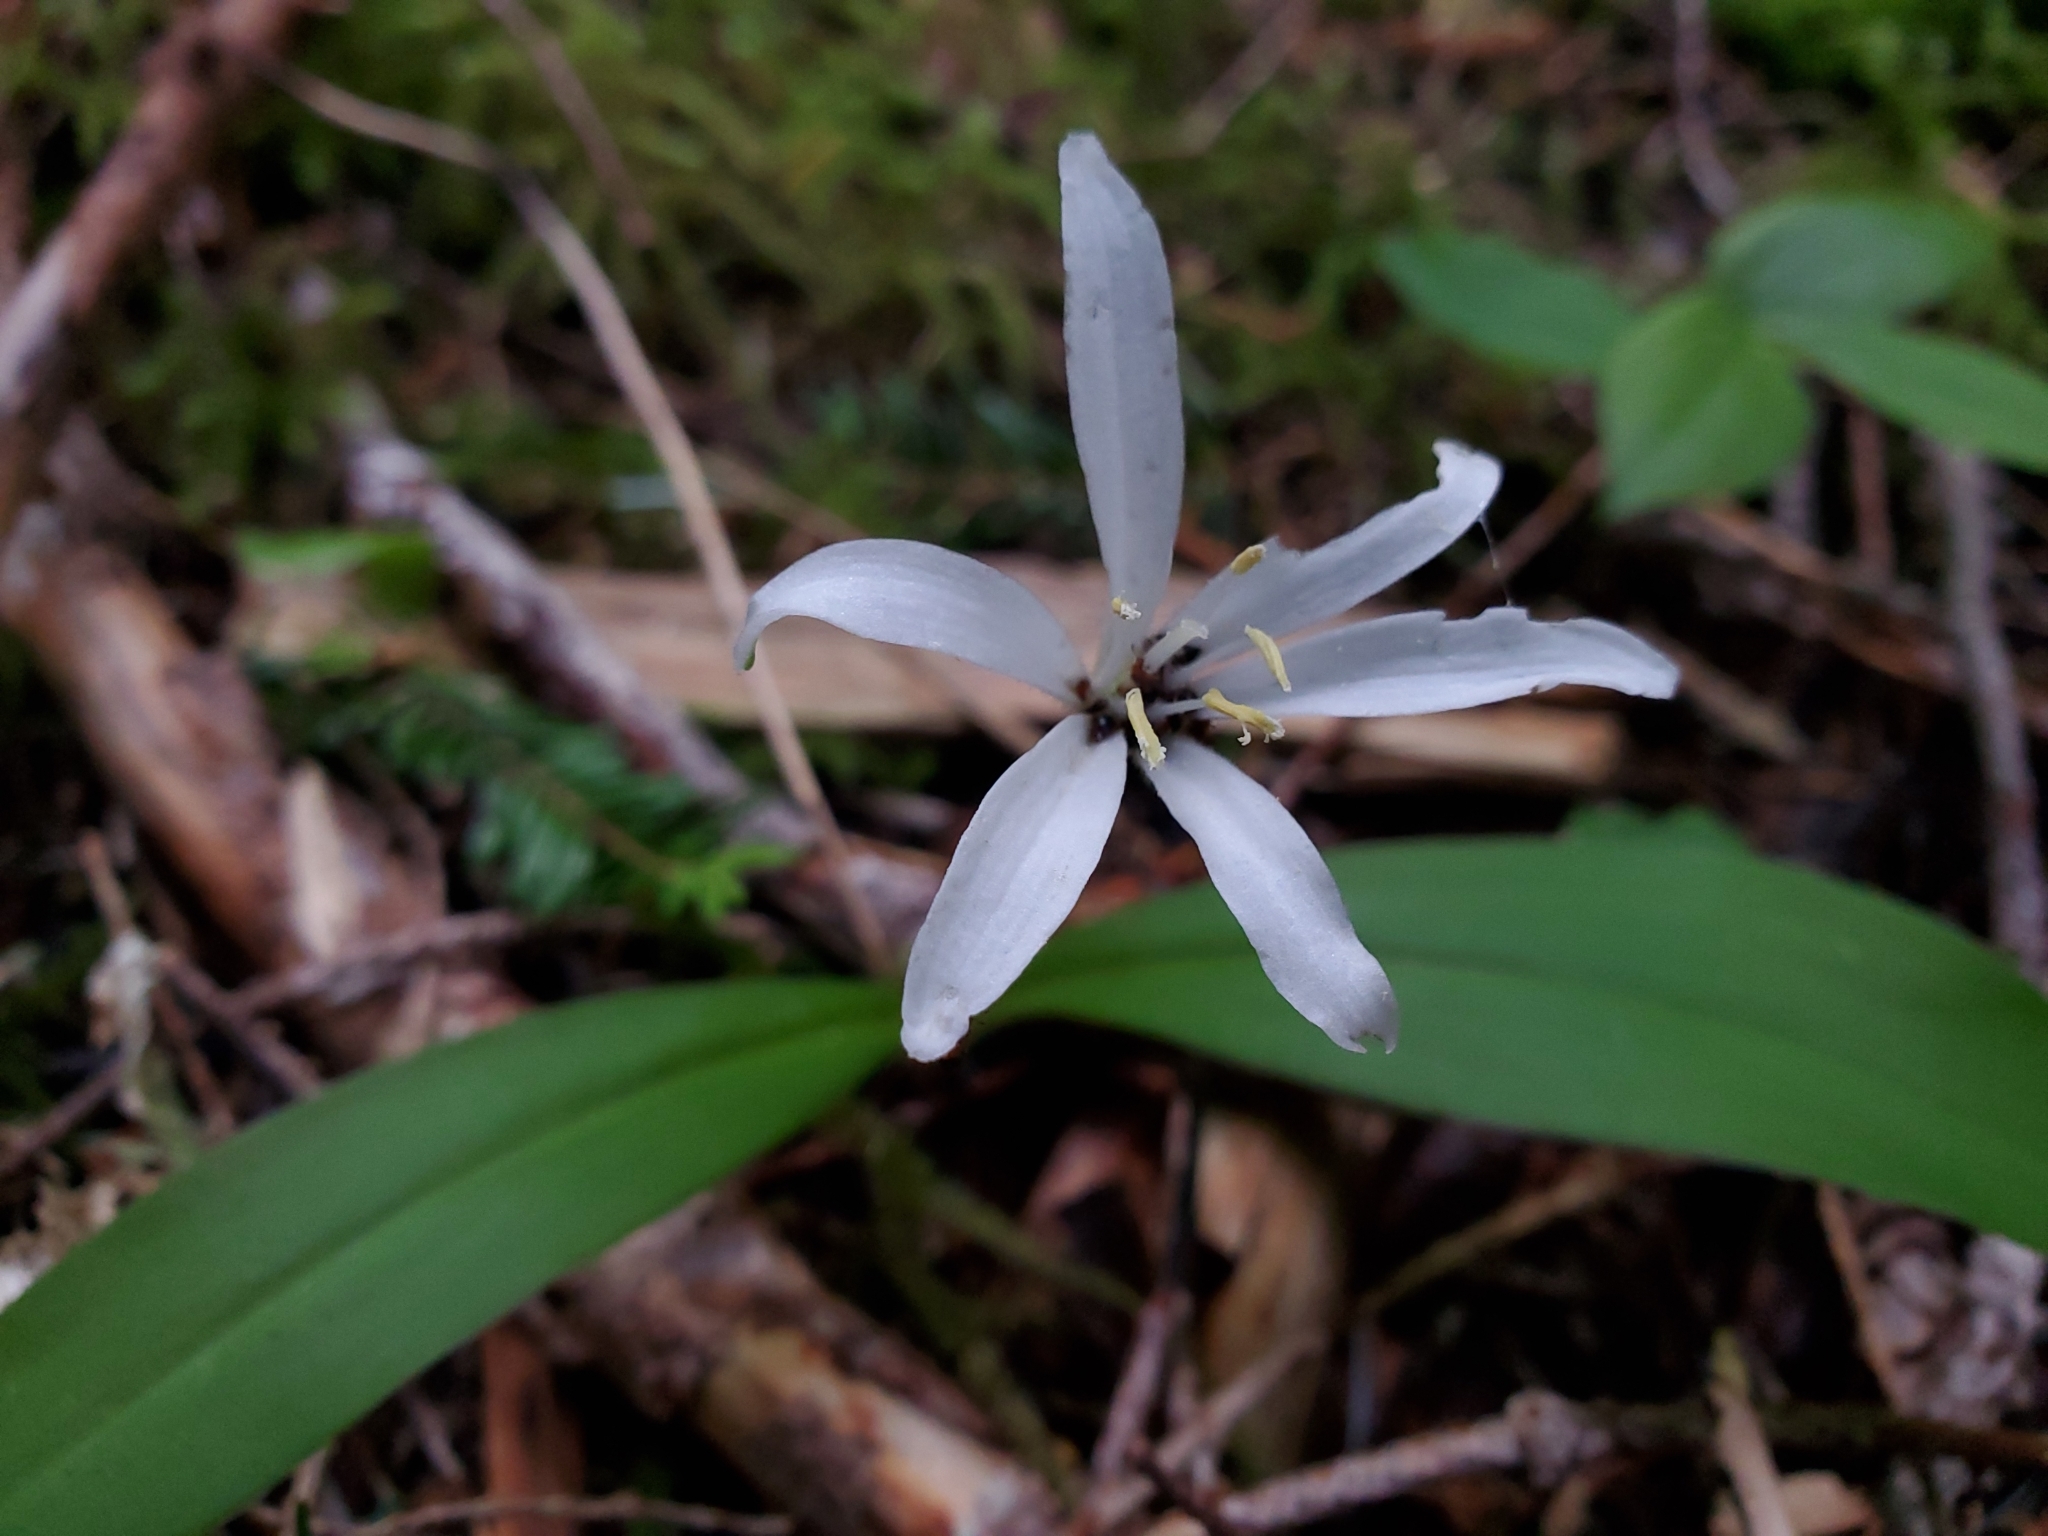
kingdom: Plantae
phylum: Tracheophyta
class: Liliopsida
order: Liliales
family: Liliaceae
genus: Clintonia
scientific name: Clintonia uniflora
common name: Queen's cup
